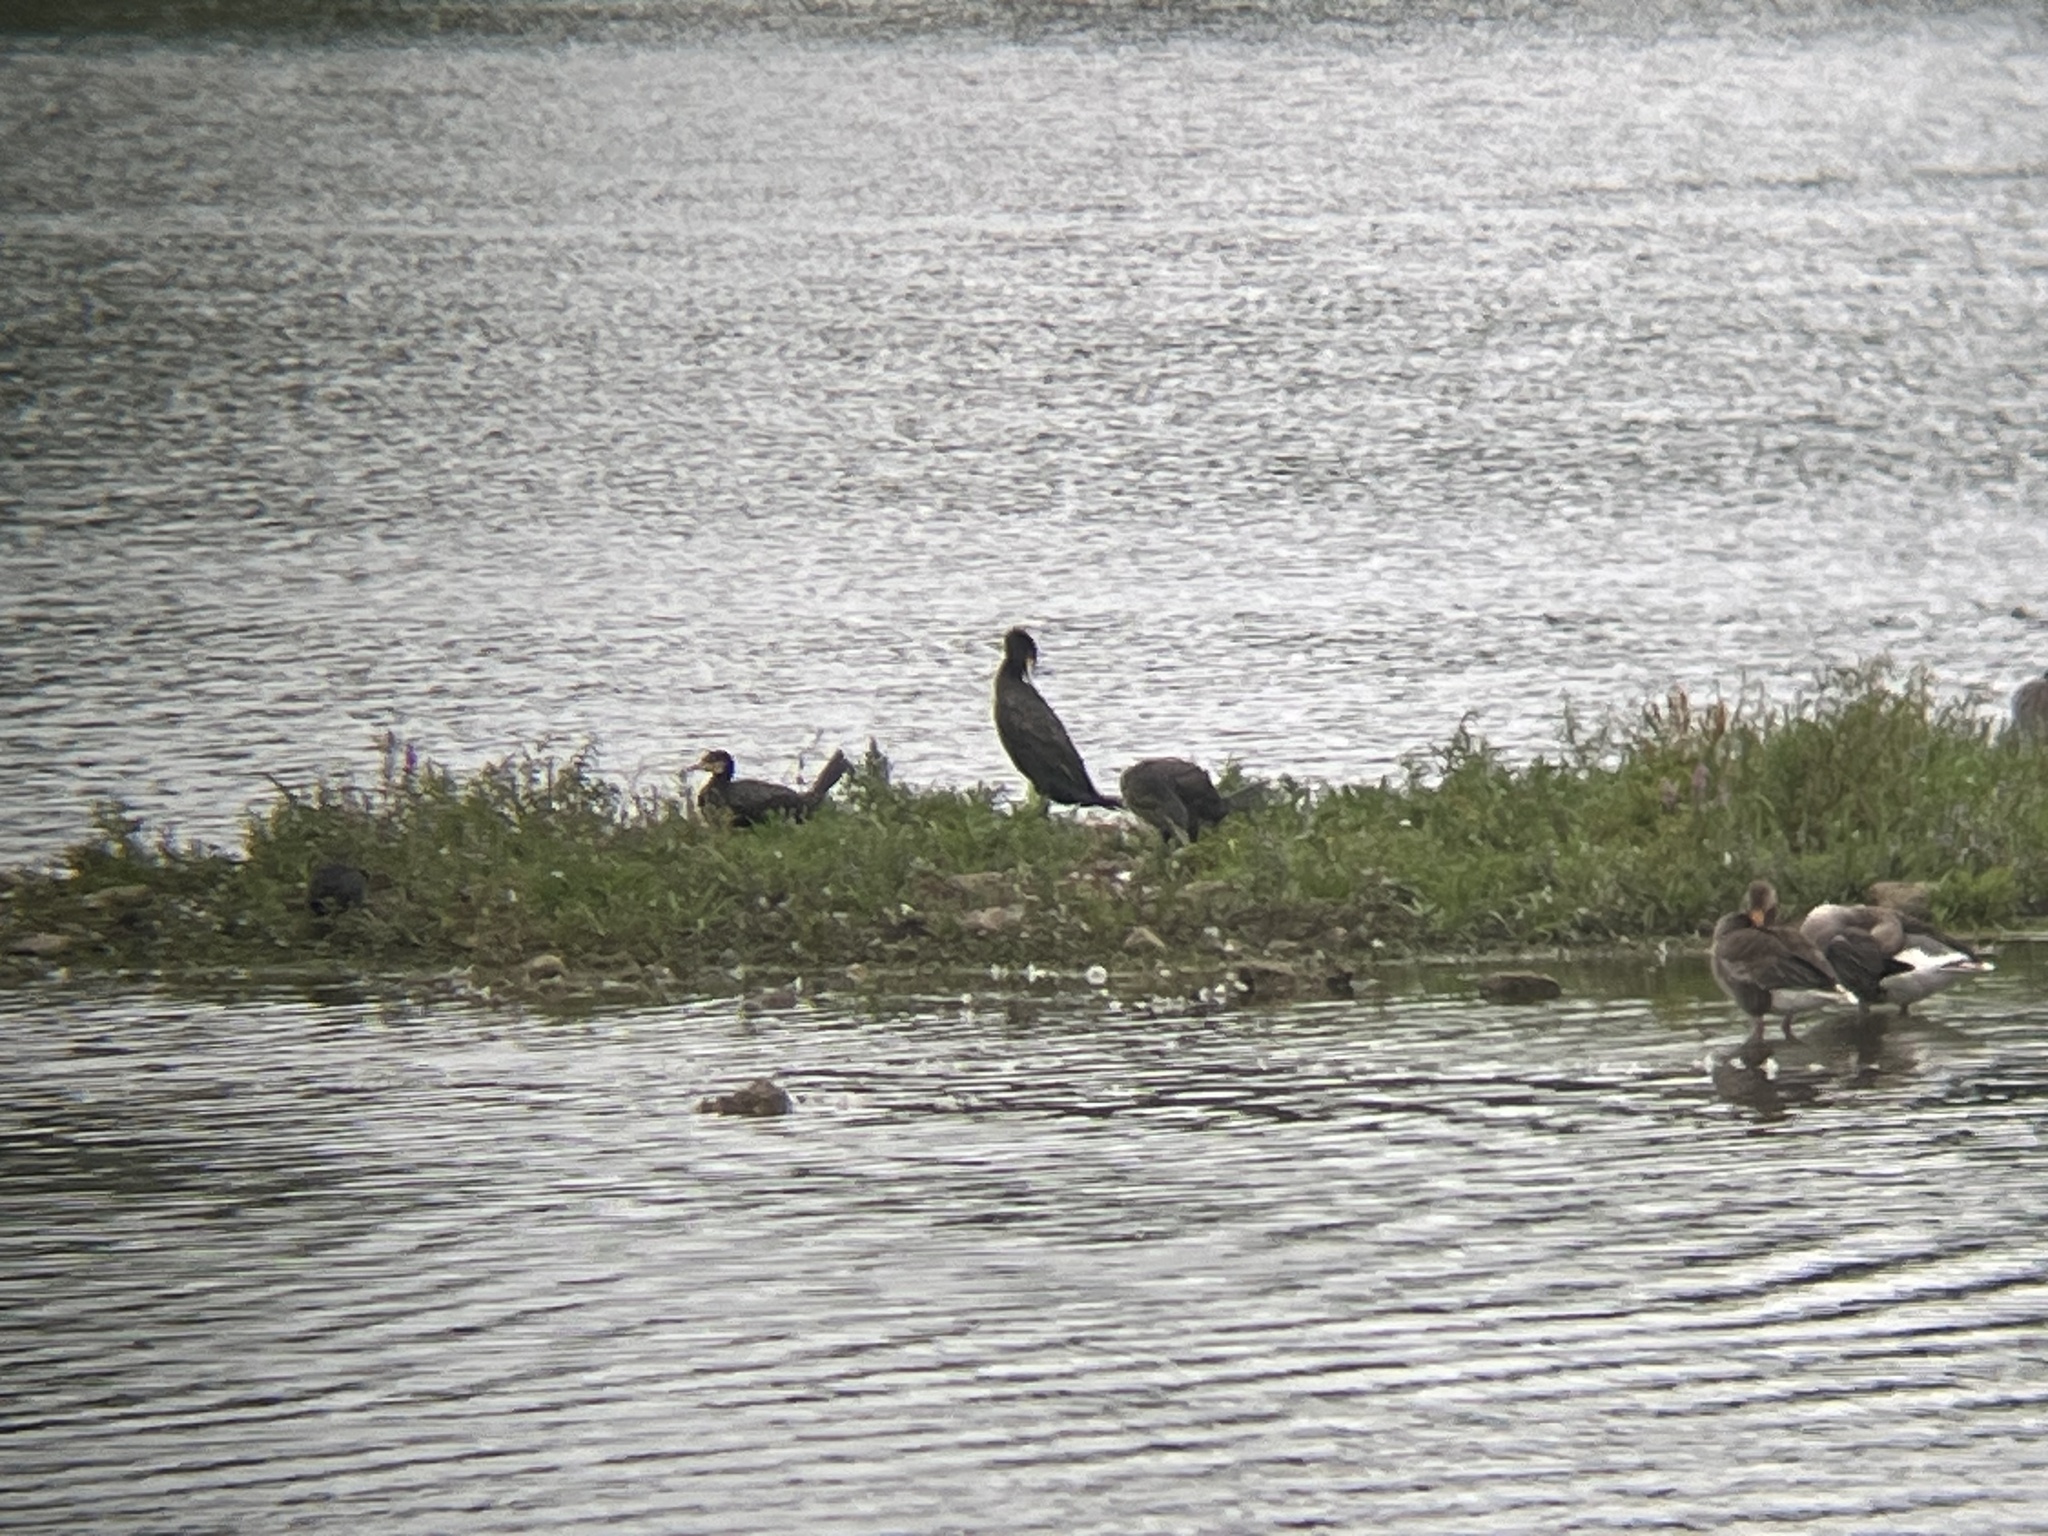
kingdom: Animalia
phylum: Chordata
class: Aves
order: Suliformes
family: Phalacrocoracidae
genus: Phalacrocorax
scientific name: Phalacrocorax carbo
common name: Great cormorant
